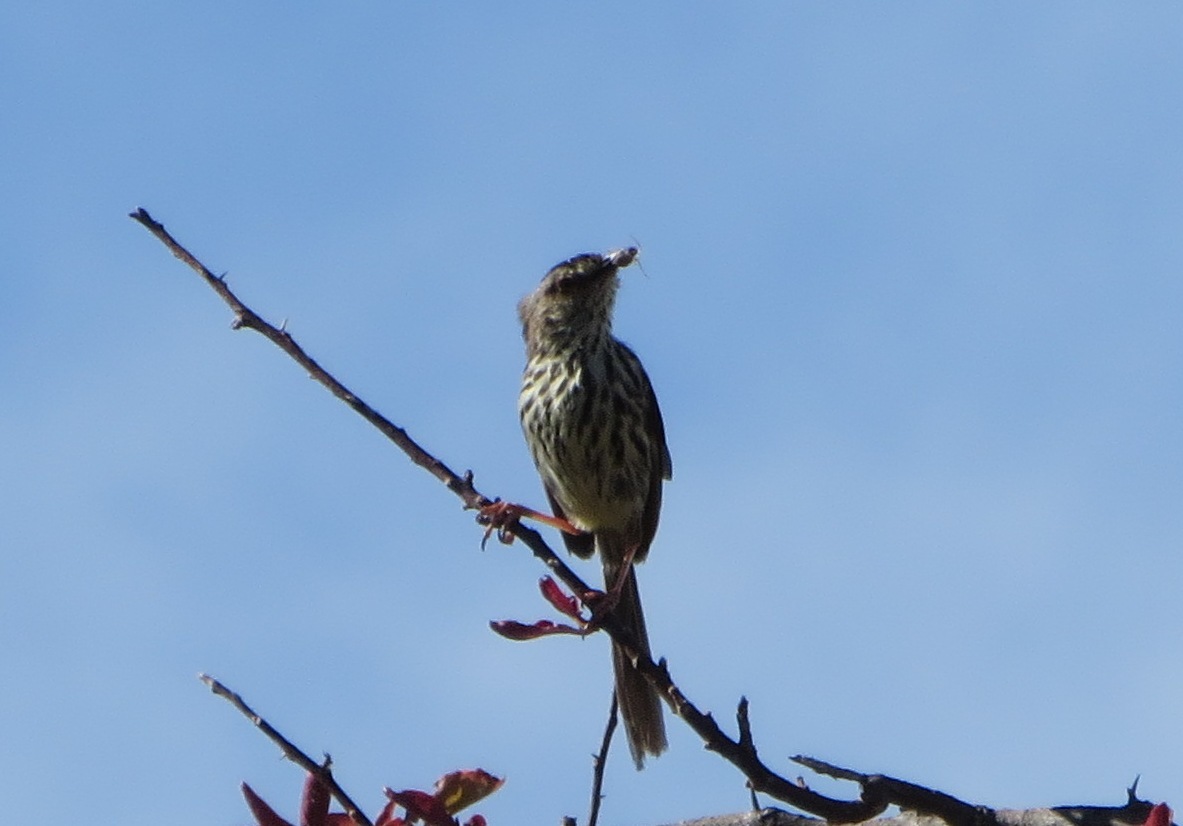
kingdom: Animalia
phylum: Chordata
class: Aves
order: Passeriformes
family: Cisticolidae
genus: Prinia
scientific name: Prinia maculosa
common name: Karoo prinia
